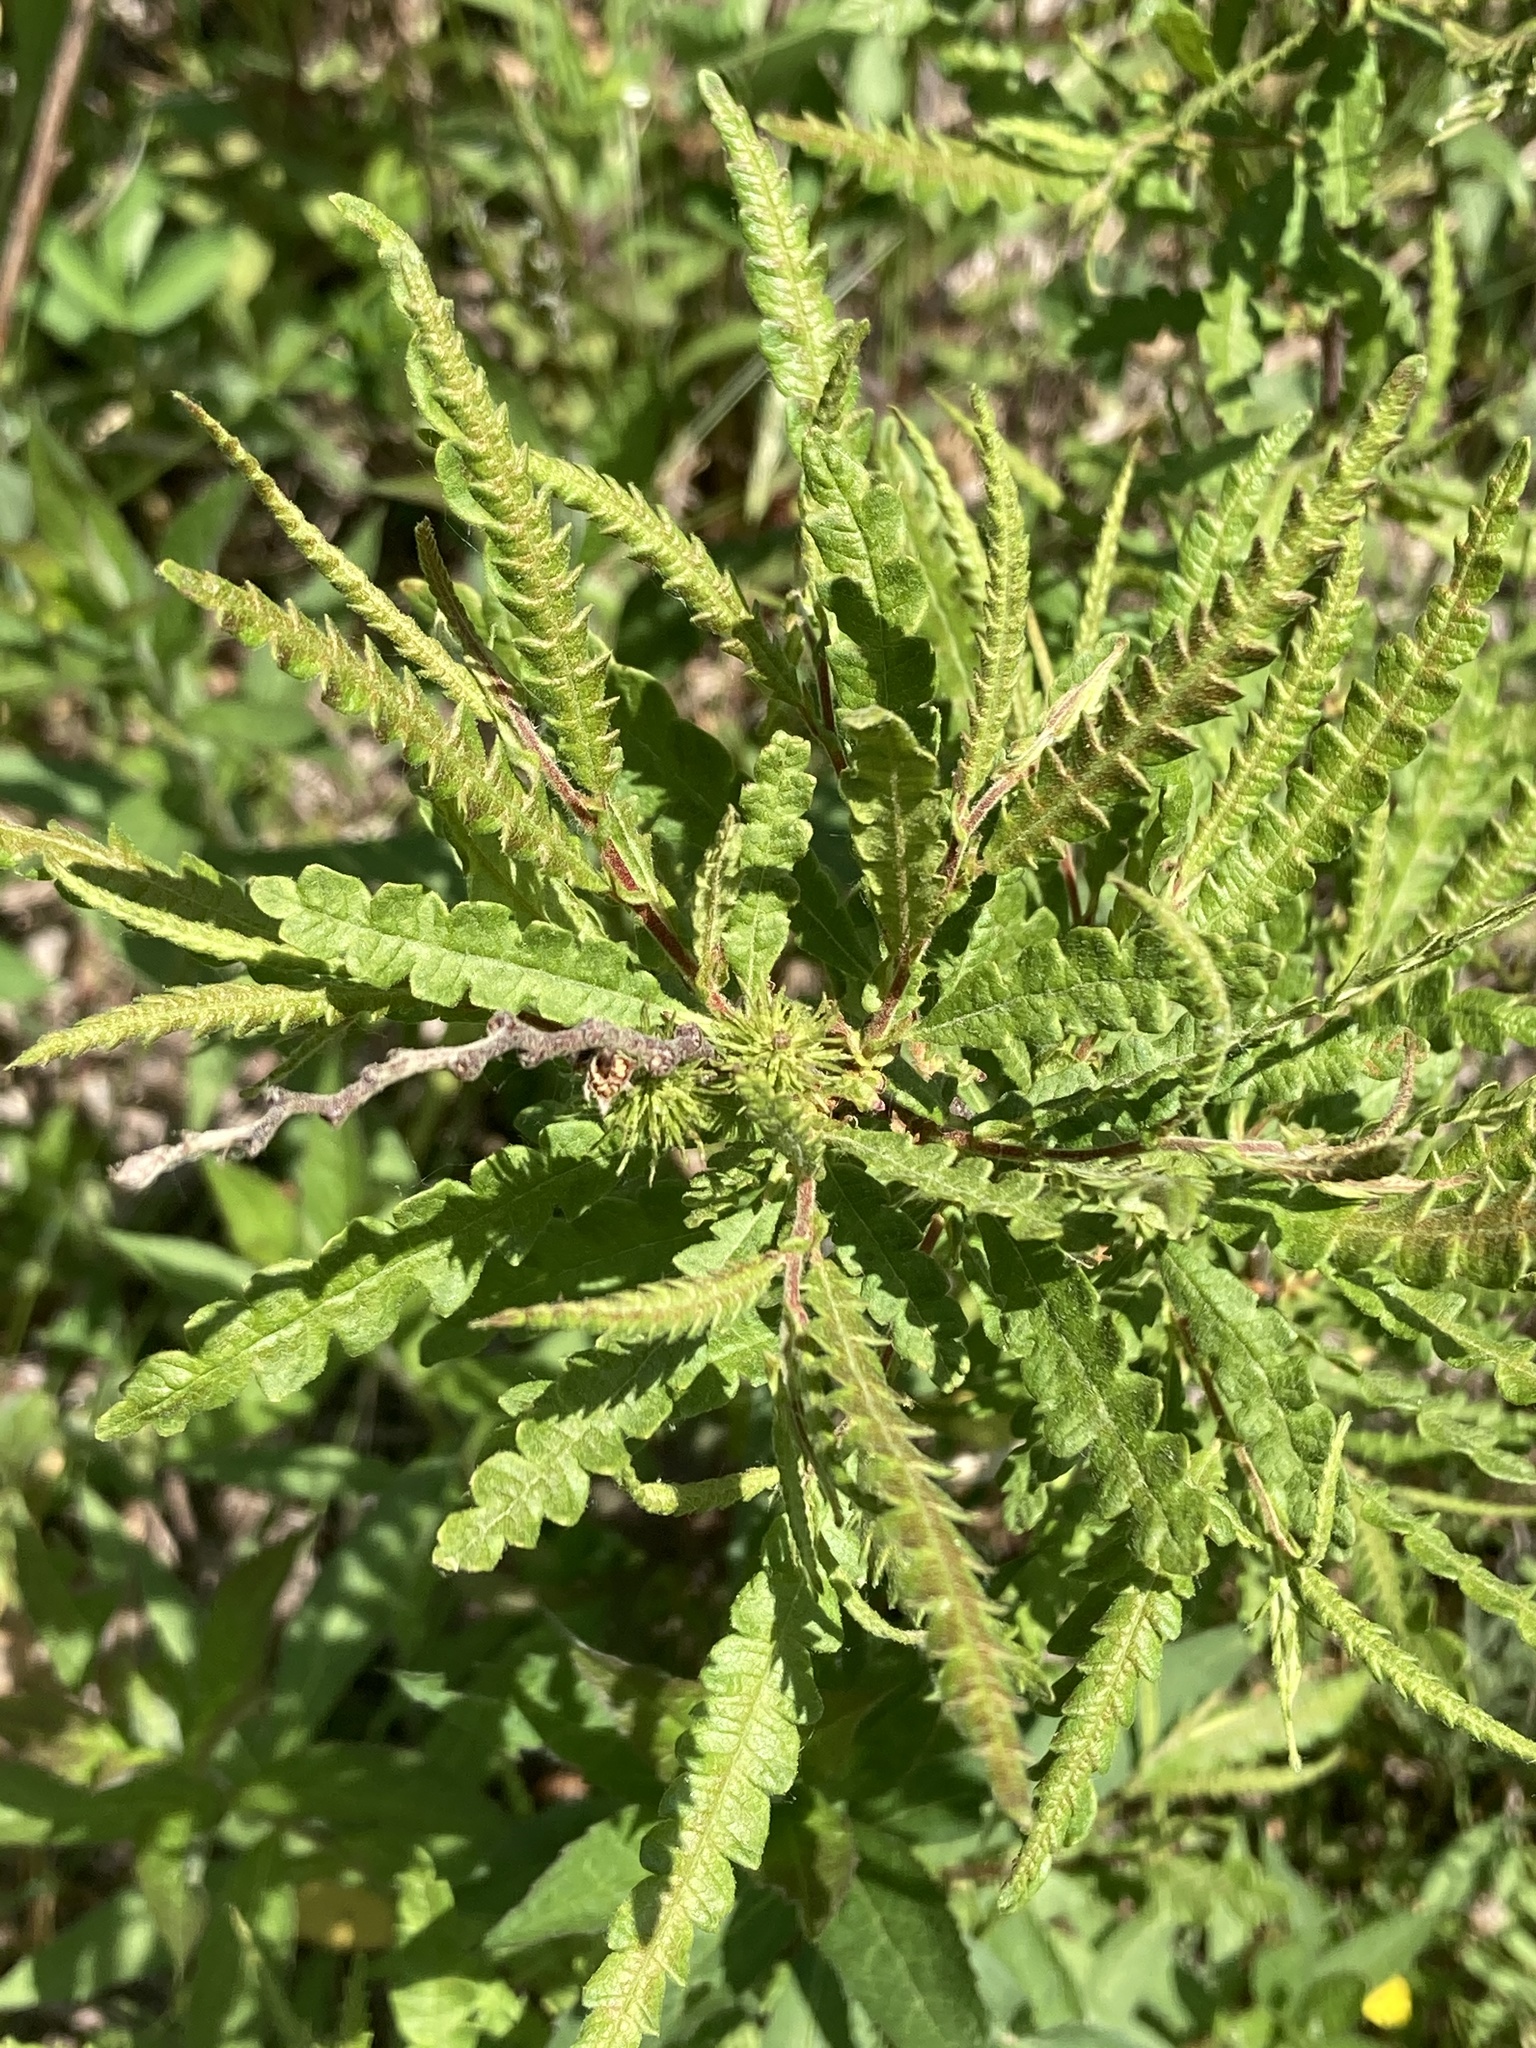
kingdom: Plantae
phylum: Tracheophyta
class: Magnoliopsida
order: Fagales
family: Myricaceae
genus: Comptonia
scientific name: Comptonia peregrina
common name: Sweet-fern
